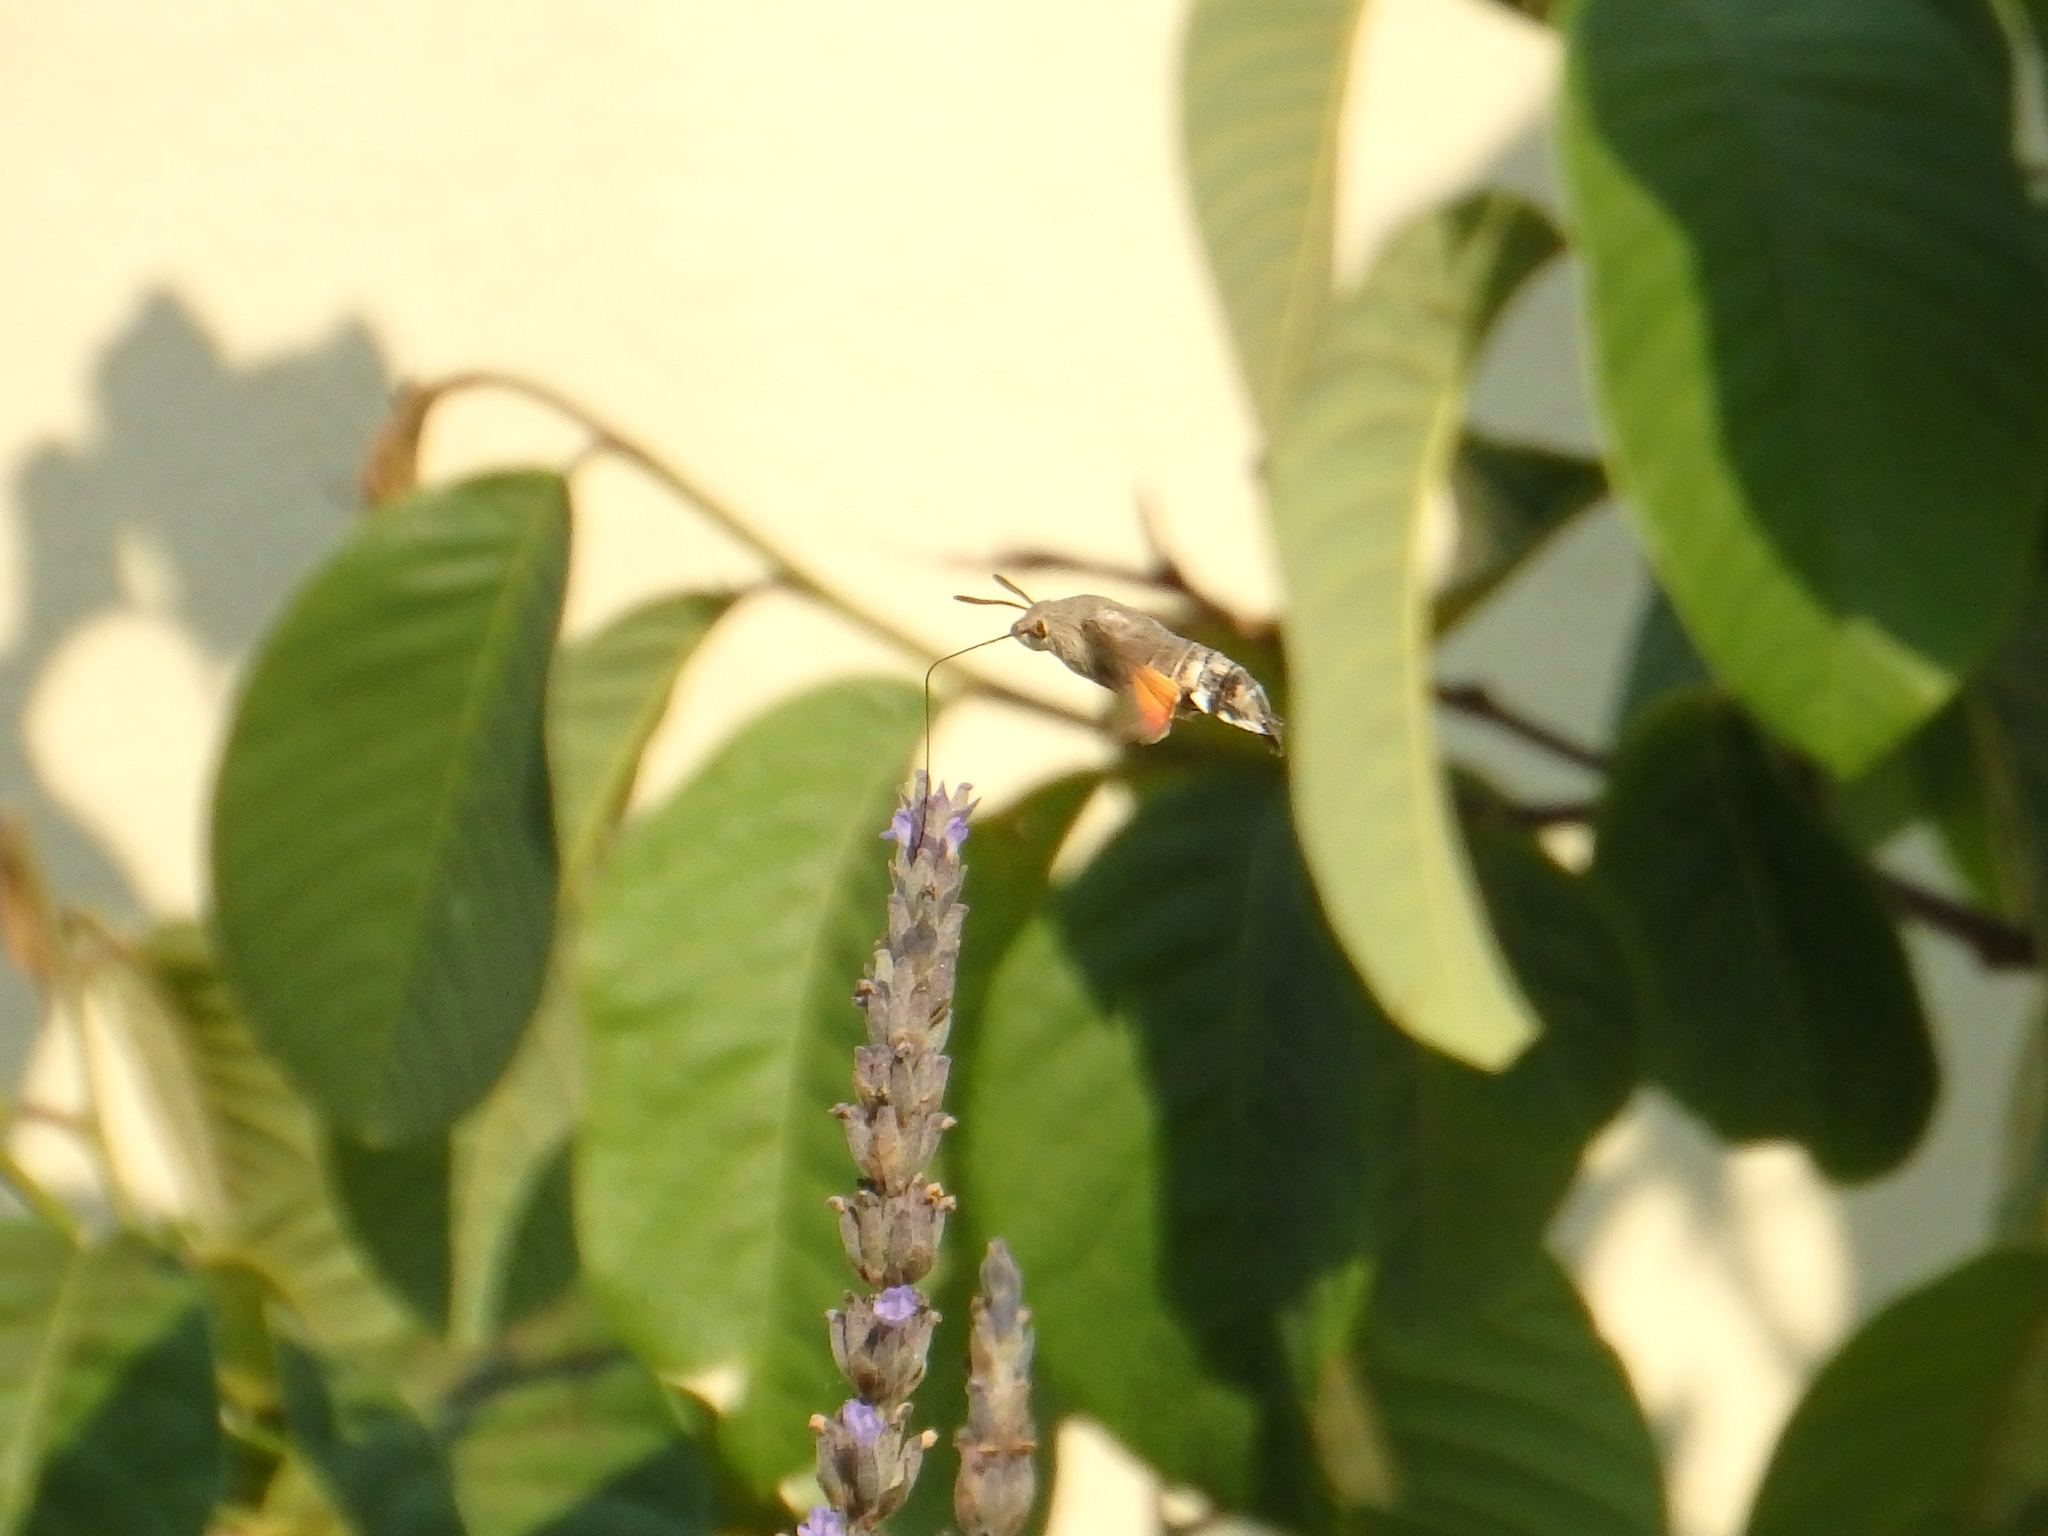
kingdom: Animalia
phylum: Arthropoda
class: Insecta
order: Lepidoptera
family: Sphingidae
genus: Macroglossum
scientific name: Macroglossum stellatarum
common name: Humming-bird hawk-moth
